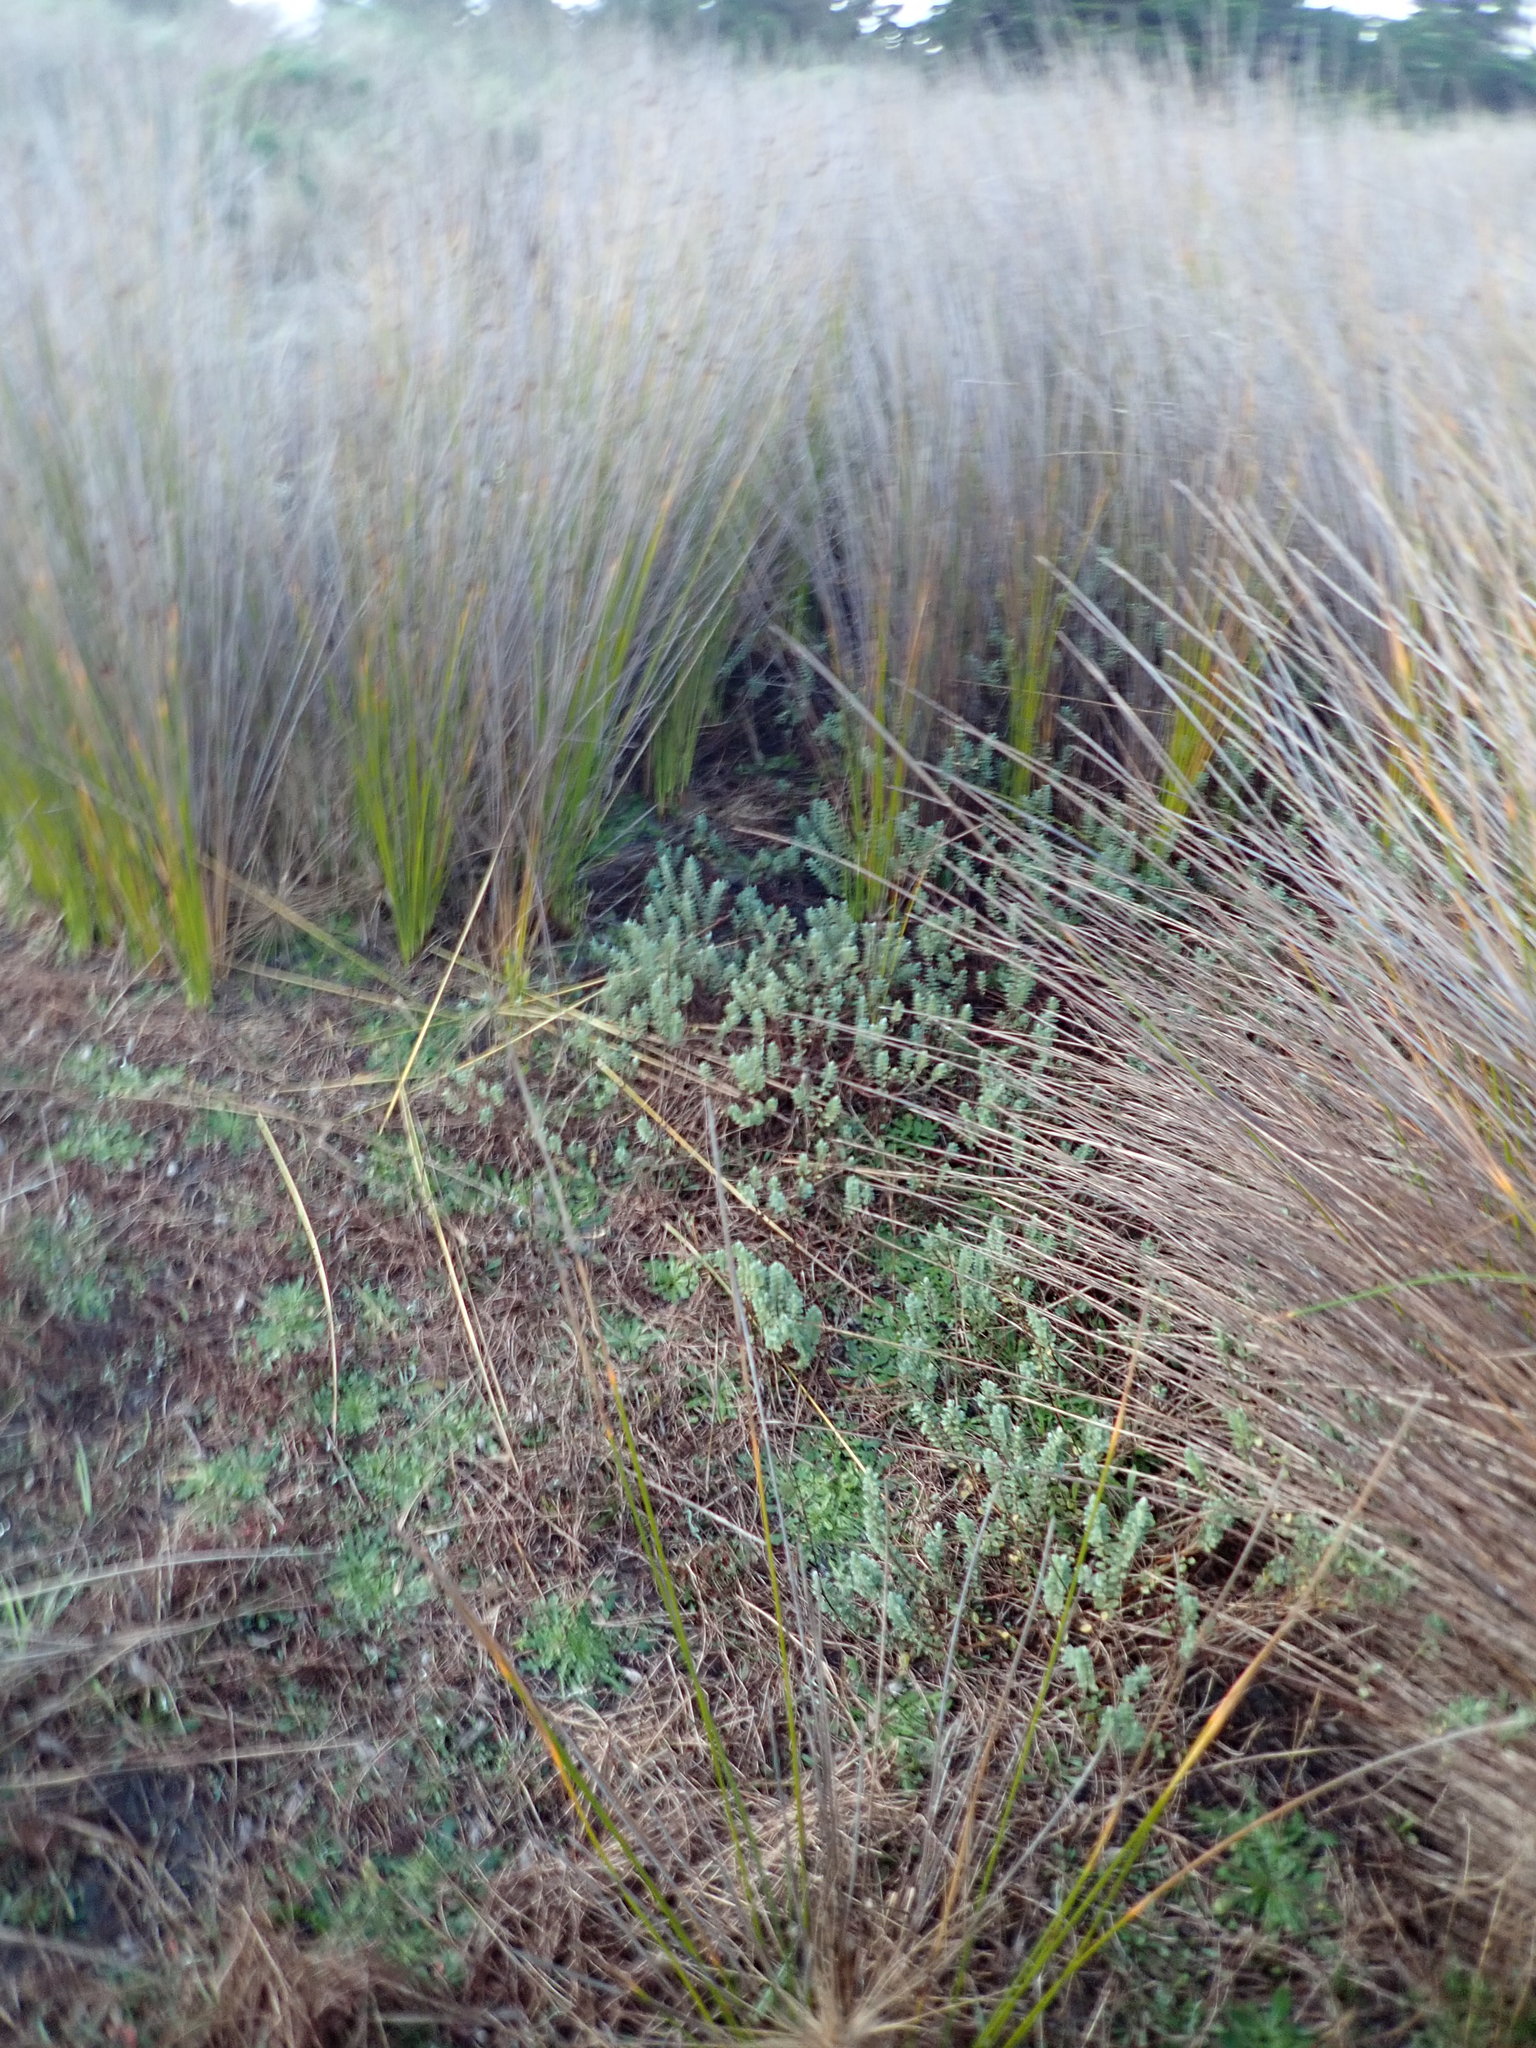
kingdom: Plantae
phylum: Tracheophyta
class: Magnoliopsida
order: Malvales
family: Thymelaeaceae
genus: Pimelea
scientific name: Pimelea villosa
